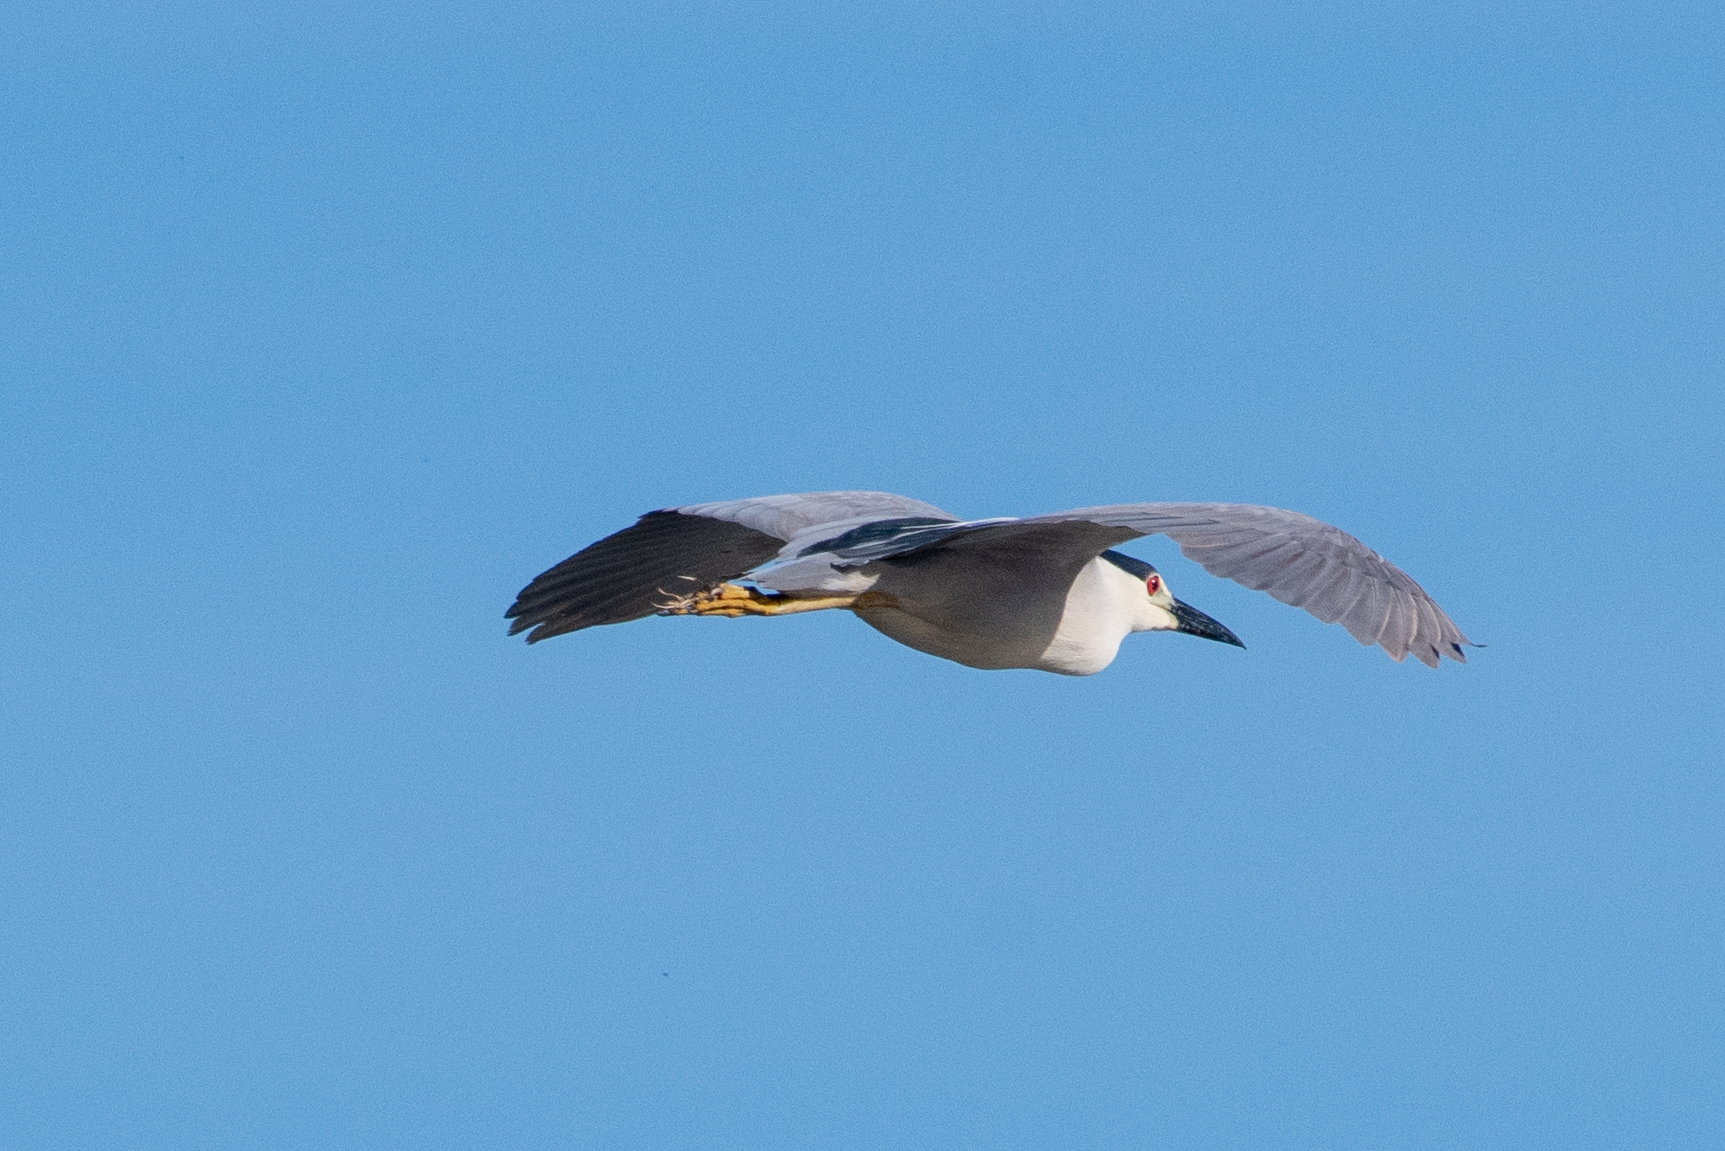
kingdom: Animalia
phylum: Chordata
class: Aves
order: Pelecaniformes
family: Ardeidae
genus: Nycticorax
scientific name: Nycticorax nycticorax
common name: Black-crowned night heron
